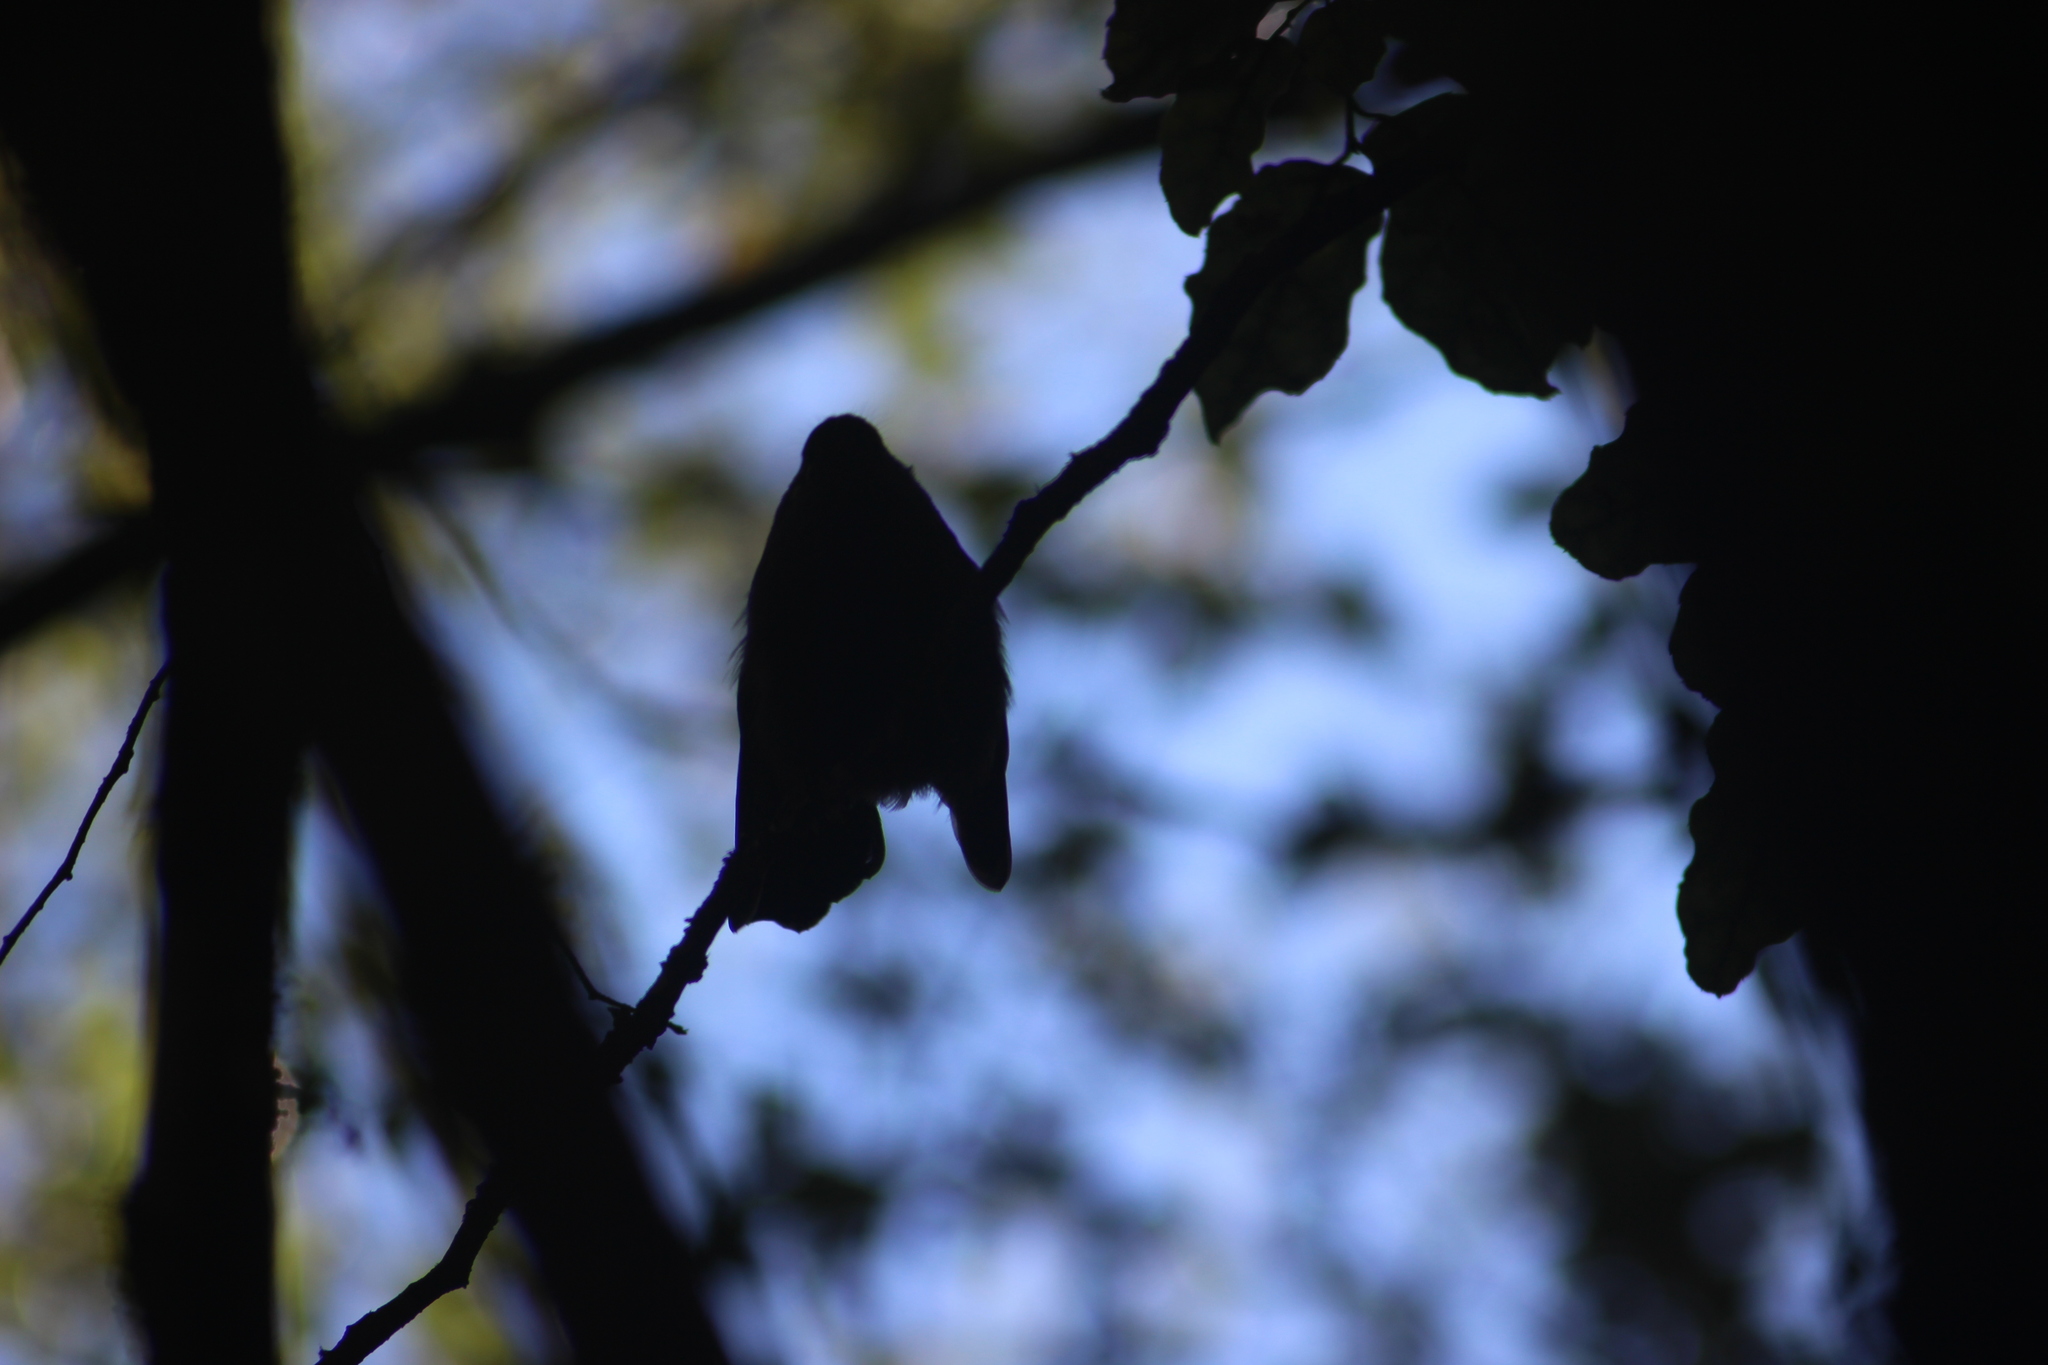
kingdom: Animalia
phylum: Chordata
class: Aves
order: Passeriformes
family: Rhipiduridae
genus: Rhipidura
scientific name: Rhipidura fuliginosa
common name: New zealand fantail
